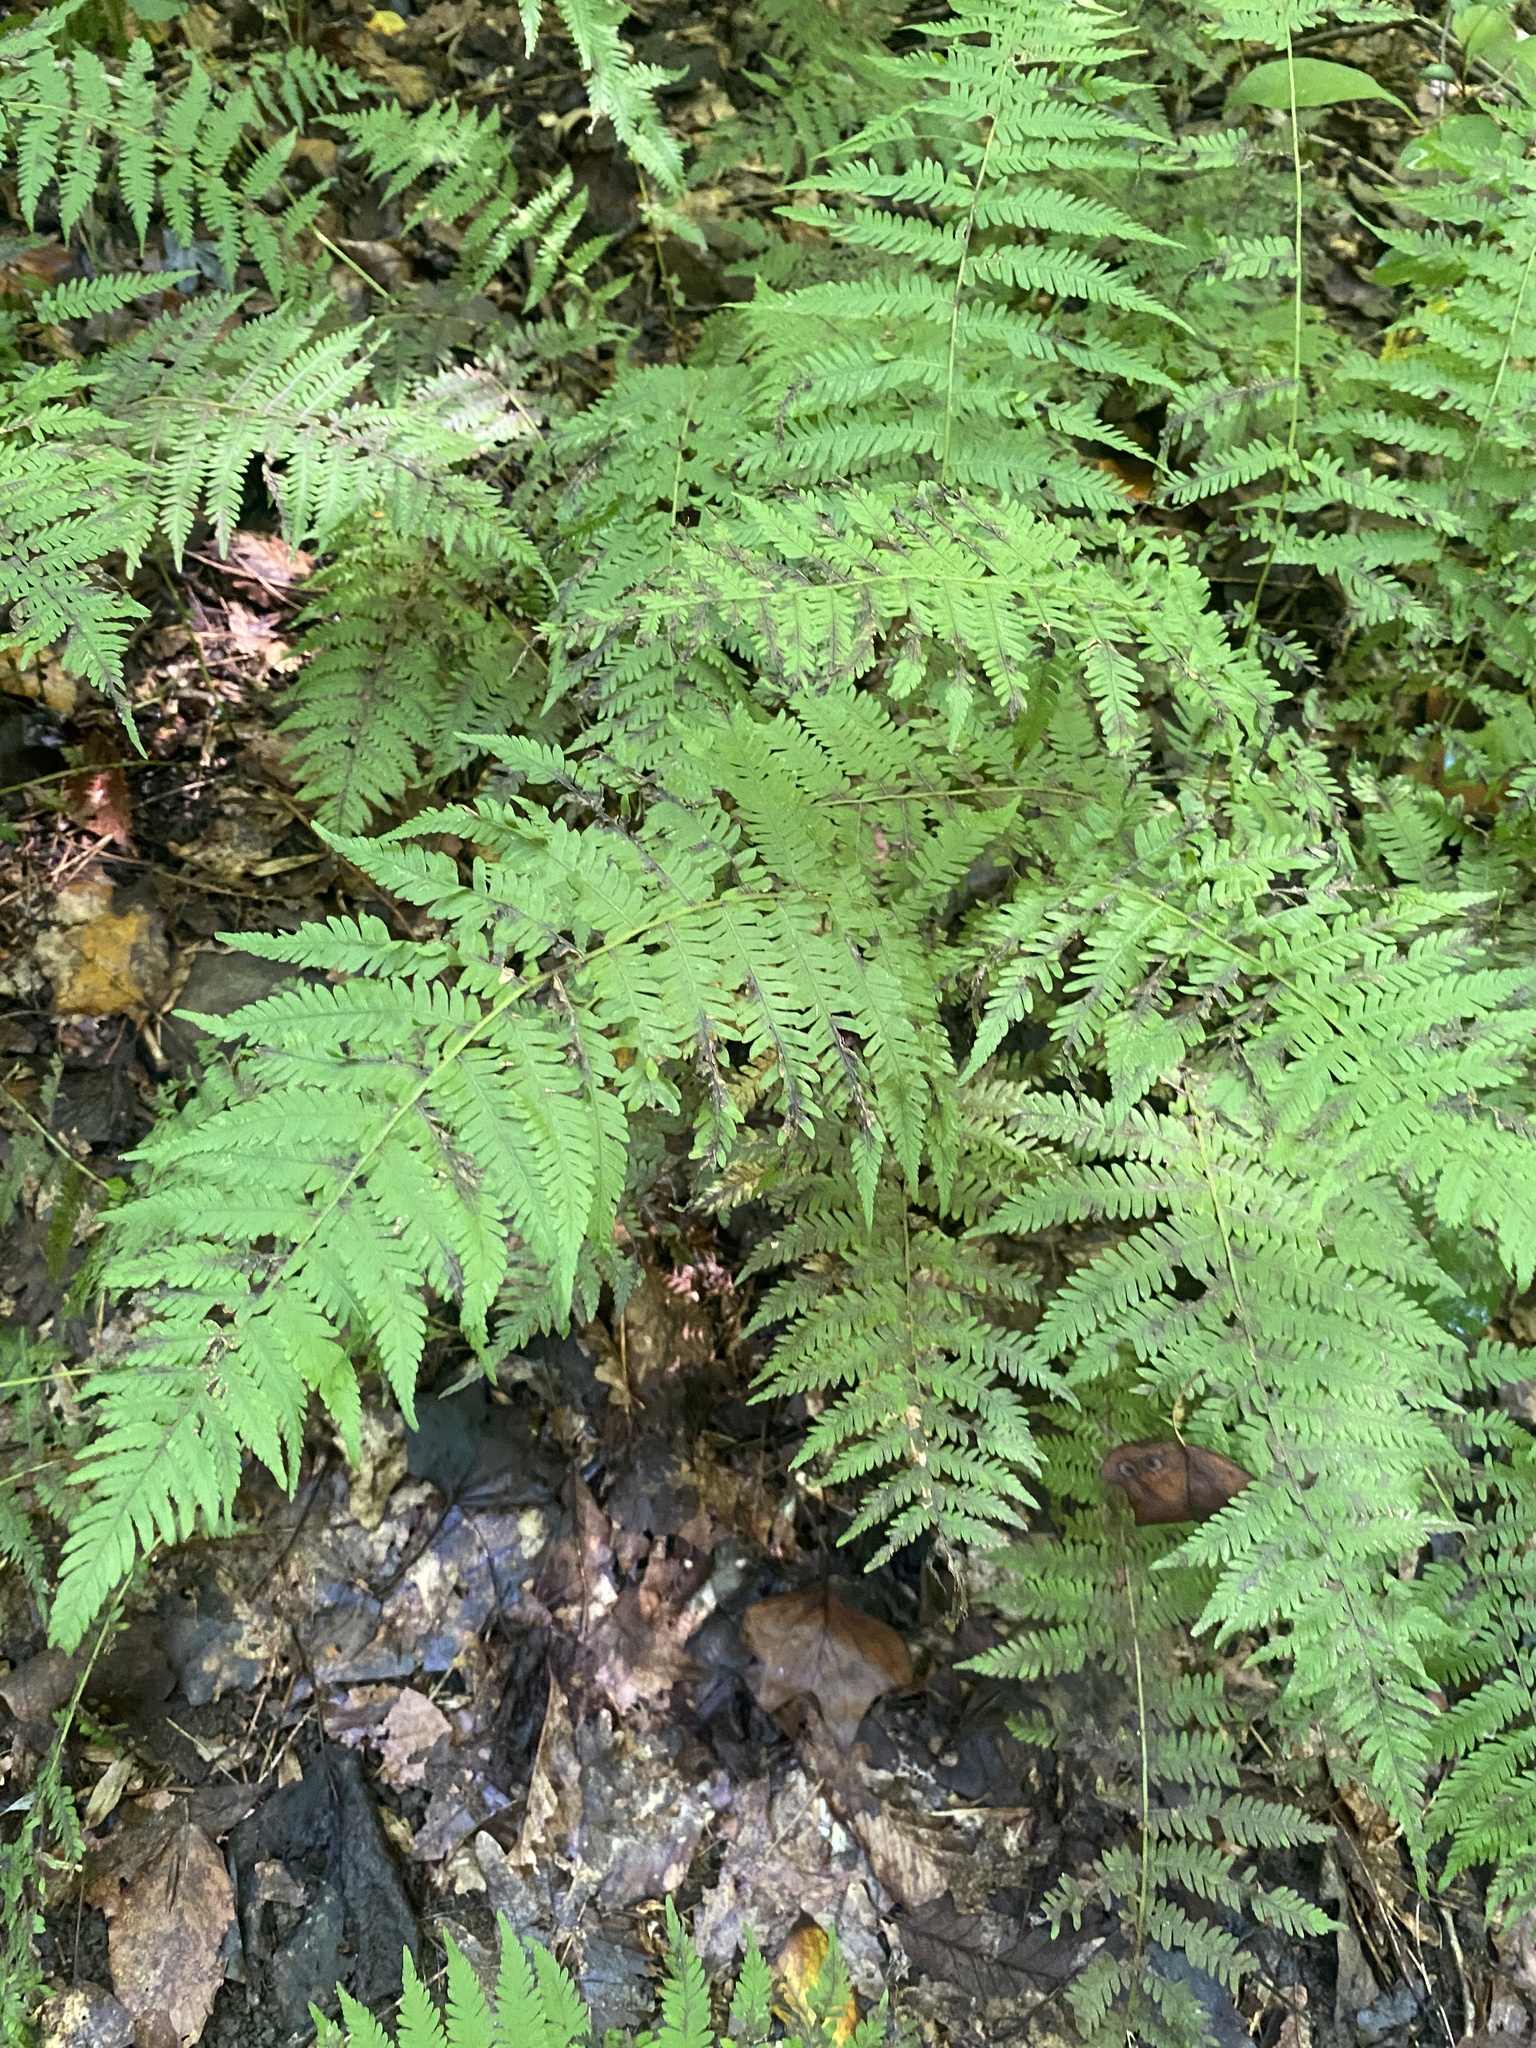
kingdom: Plantae
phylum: Tracheophyta
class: Polypodiopsida
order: Polypodiales
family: Thelypteridaceae
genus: Amauropelta
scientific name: Amauropelta noveboracensis
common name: New york fern
